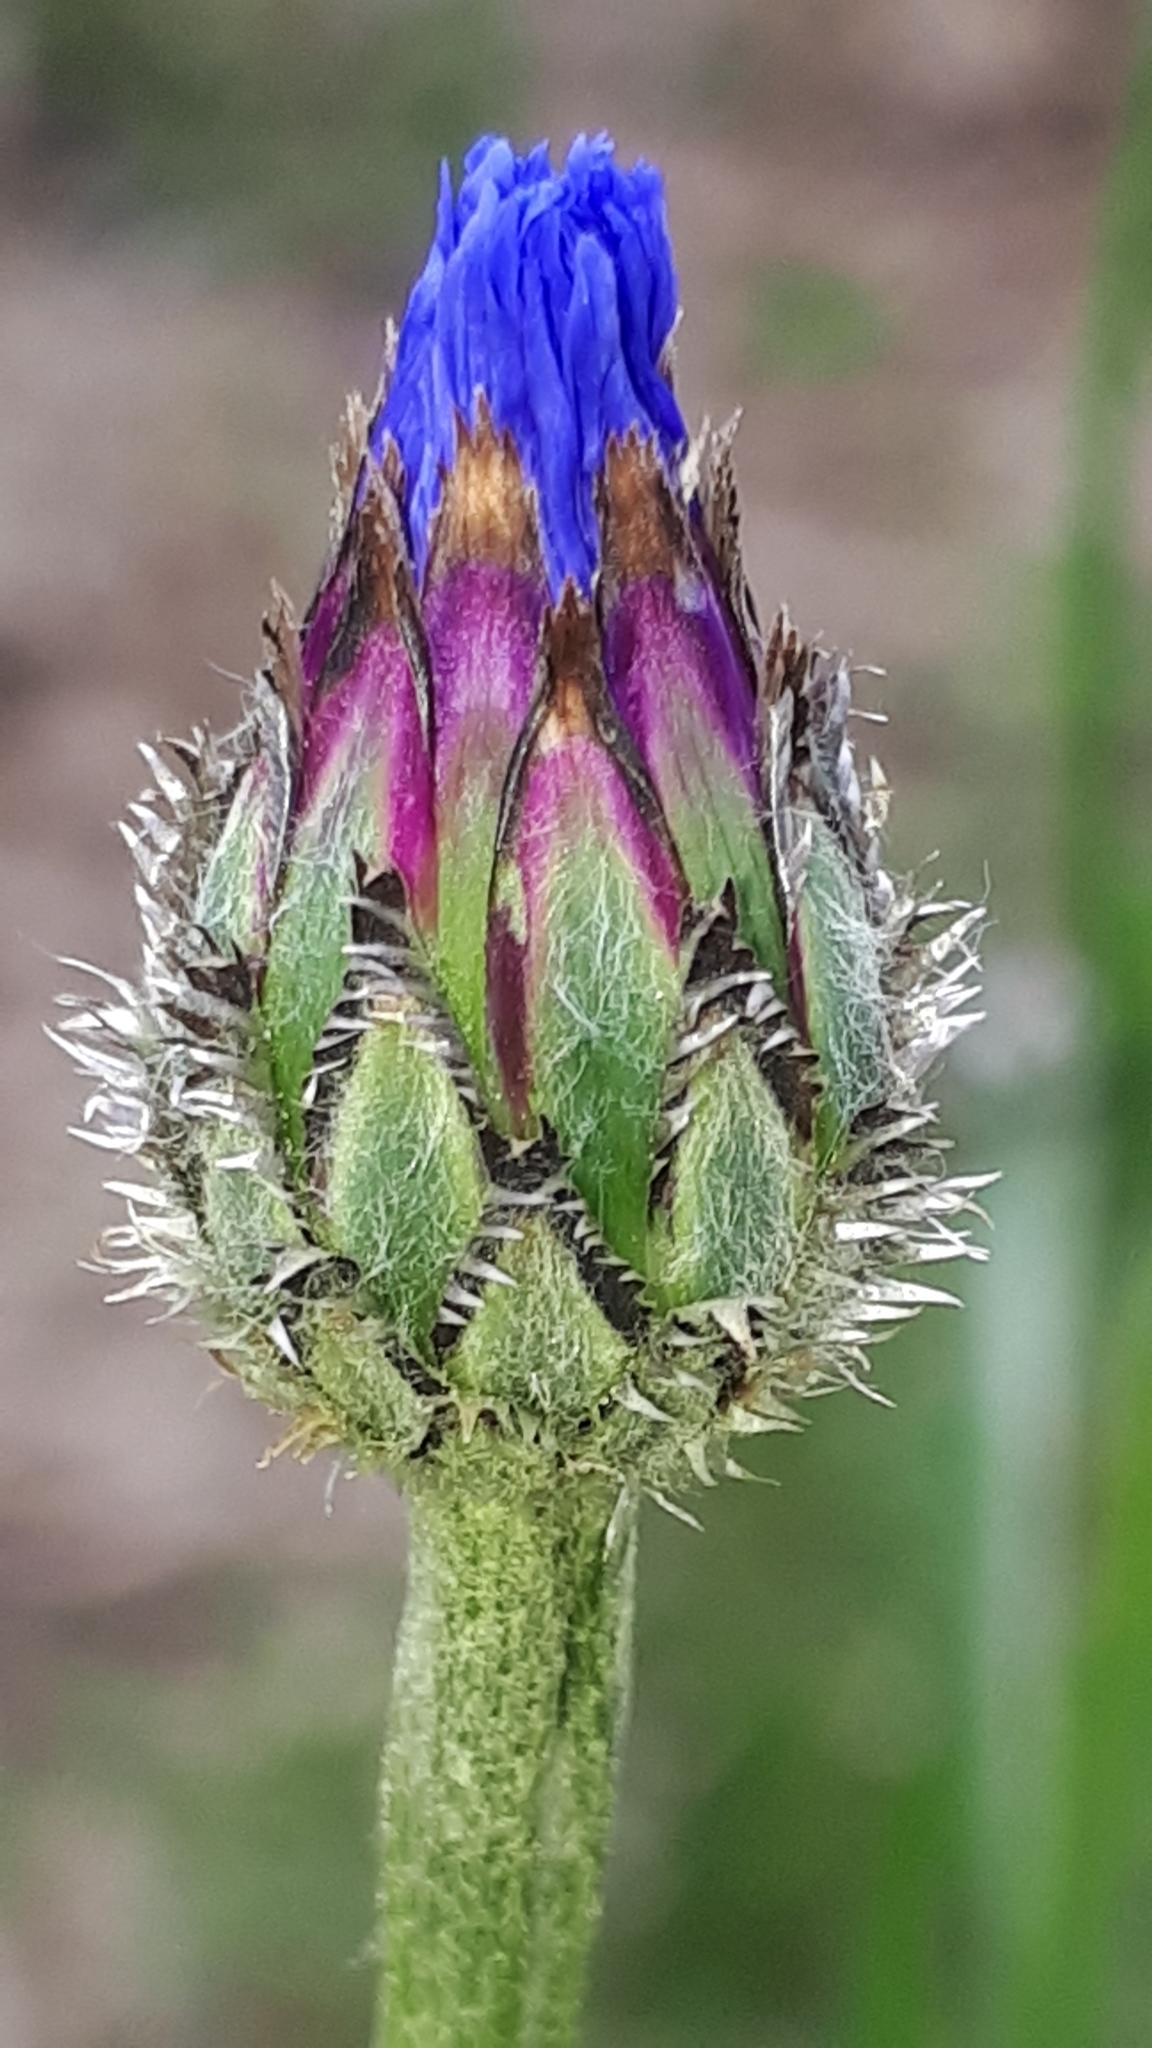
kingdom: Plantae
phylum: Tracheophyta
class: Magnoliopsida
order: Asterales
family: Asteraceae
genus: Centaurea
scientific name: Centaurea cyanus
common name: Cornflower
